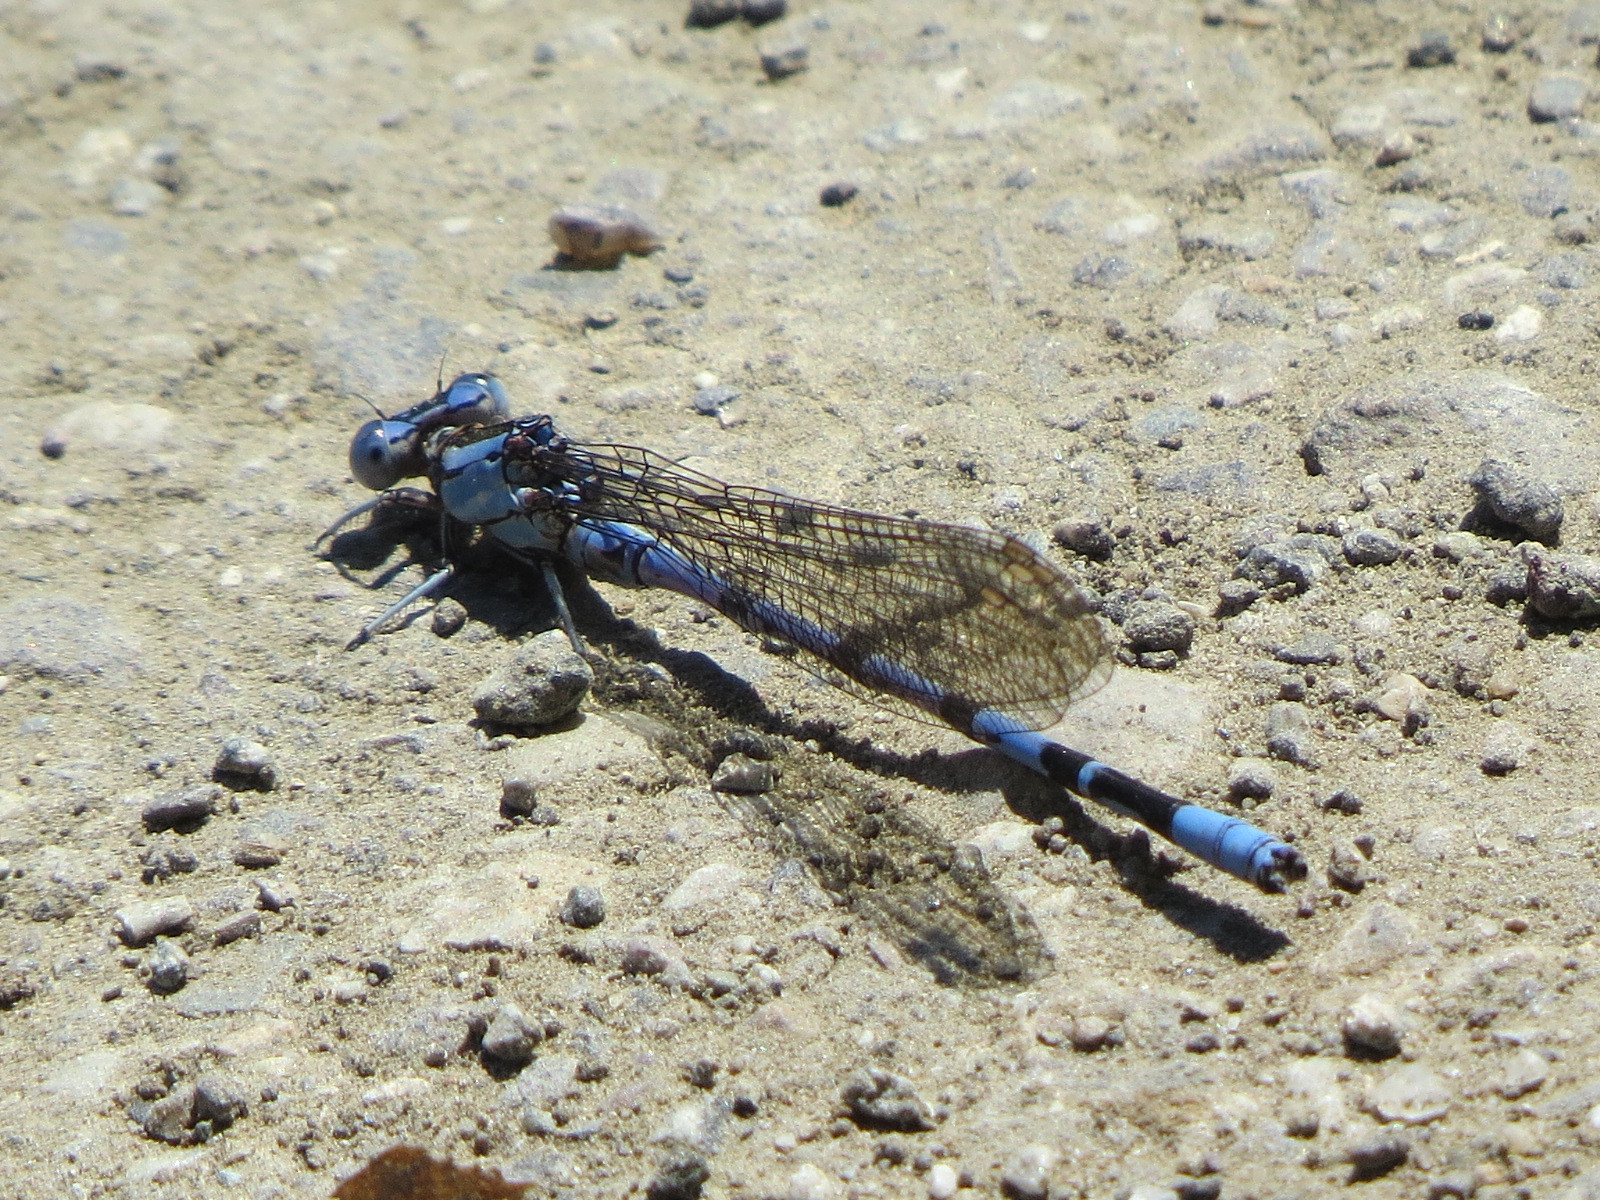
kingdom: Animalia
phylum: Arthropoda
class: Insecta
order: Odonata
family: Coenagrionidae
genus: Argia
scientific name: Argia vivida
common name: Vivid dancer
